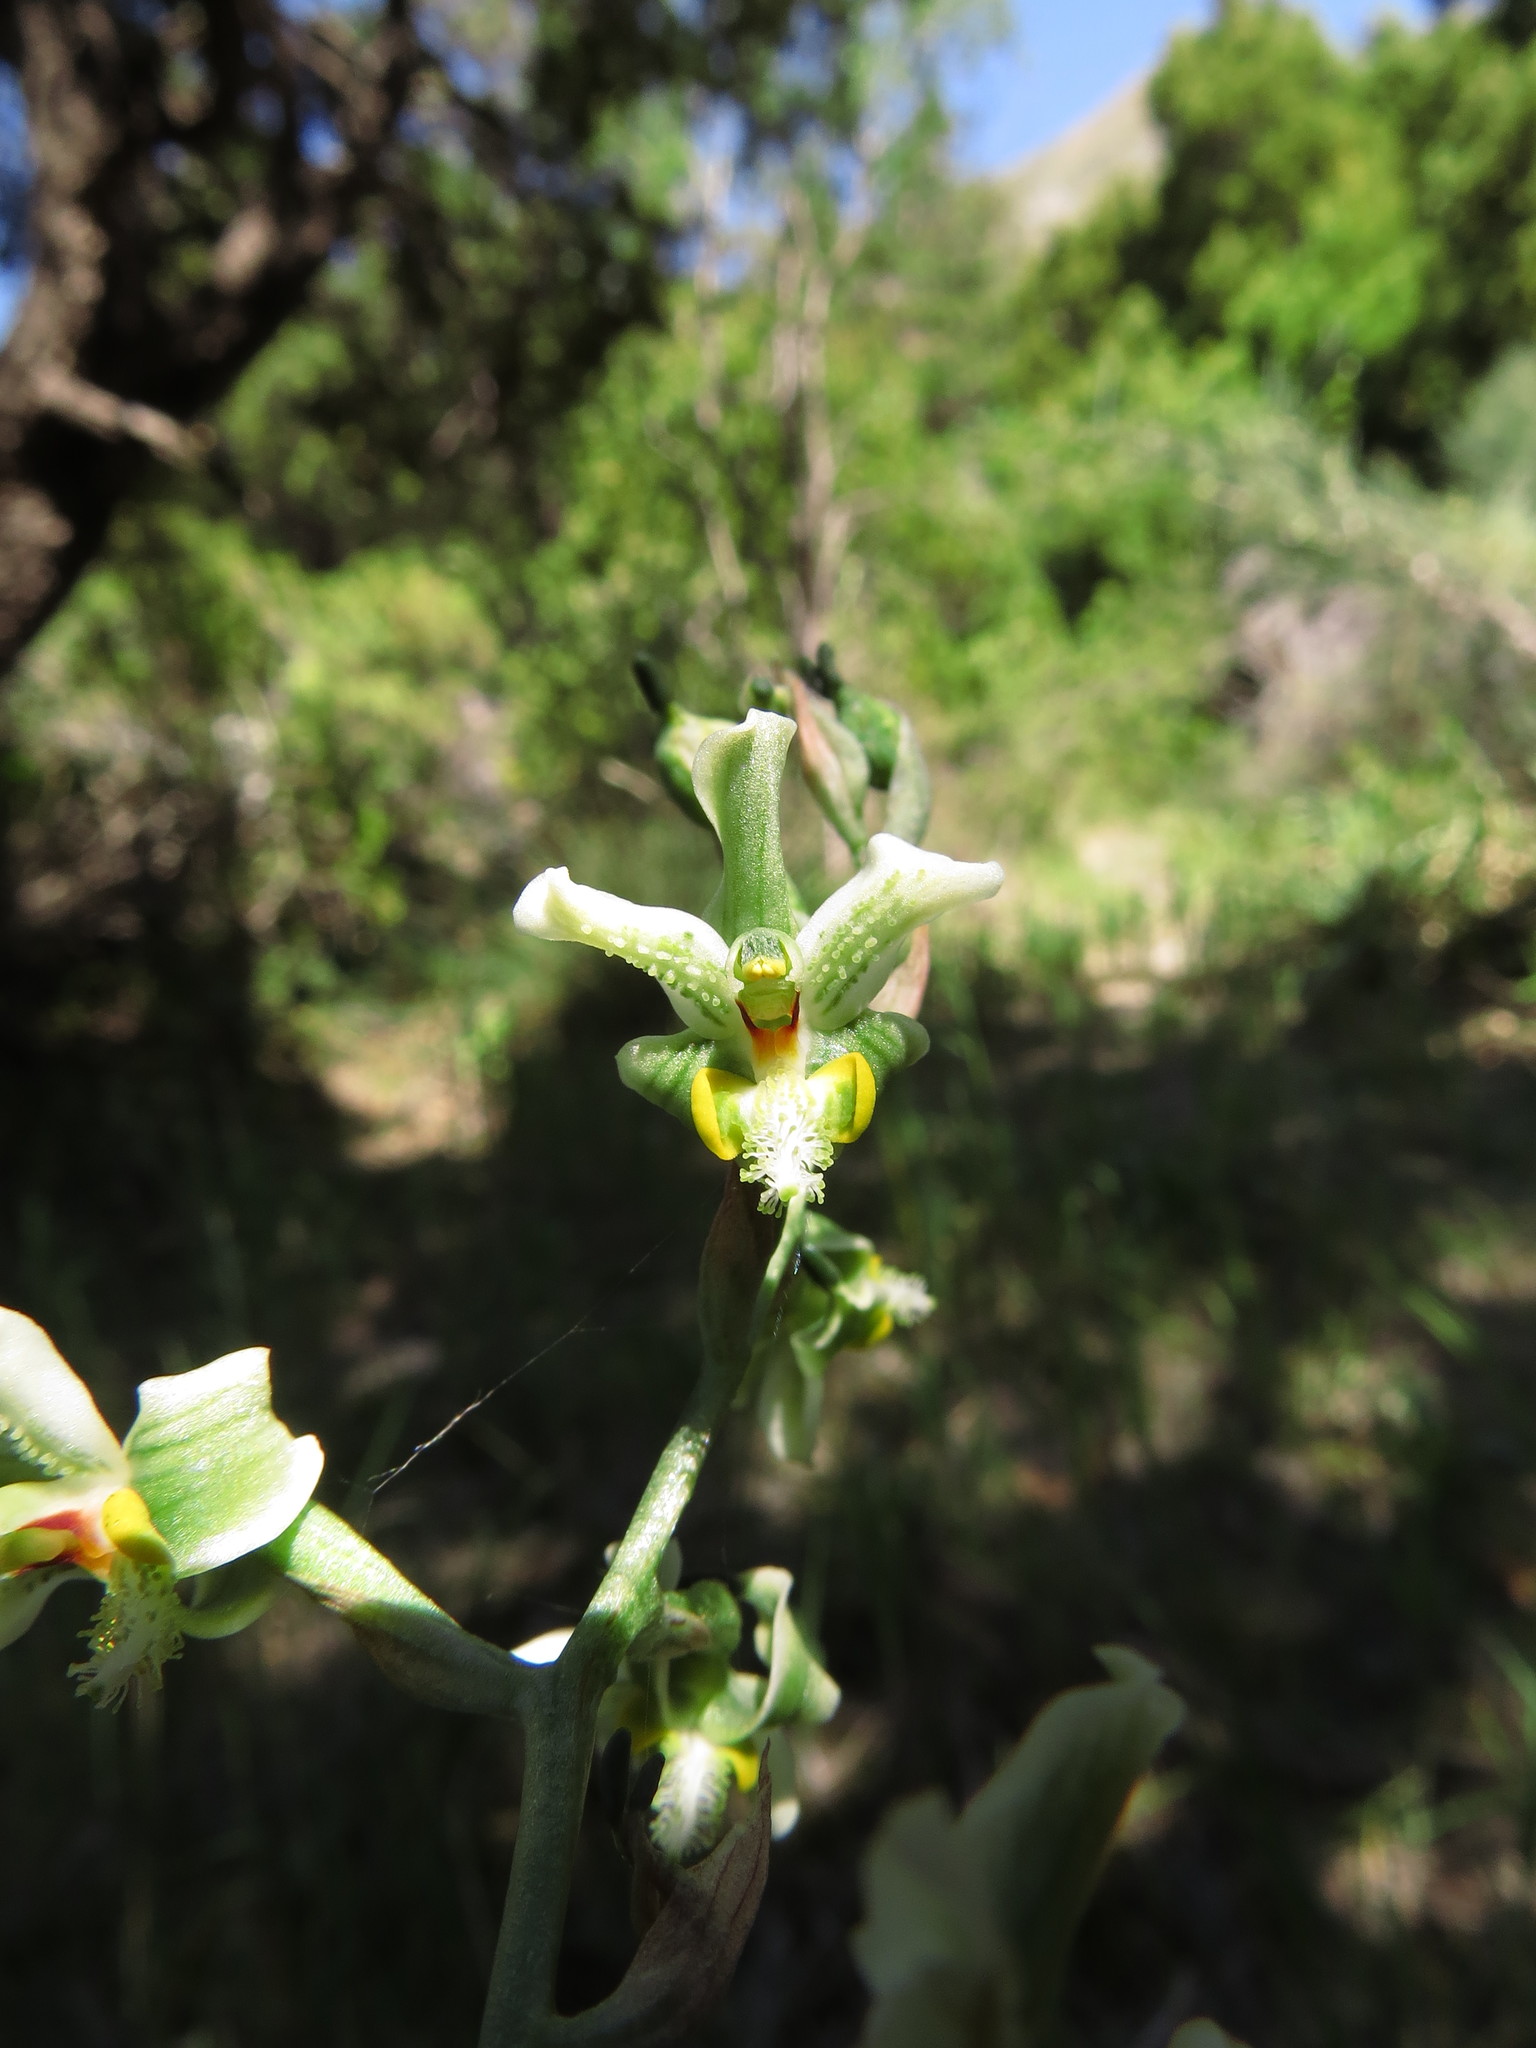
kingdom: Plantae
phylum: Tracheophyta
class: Liliopsida
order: Asparagales
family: Orchidaceae
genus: Gavilea
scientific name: Gavilea glandulifera
